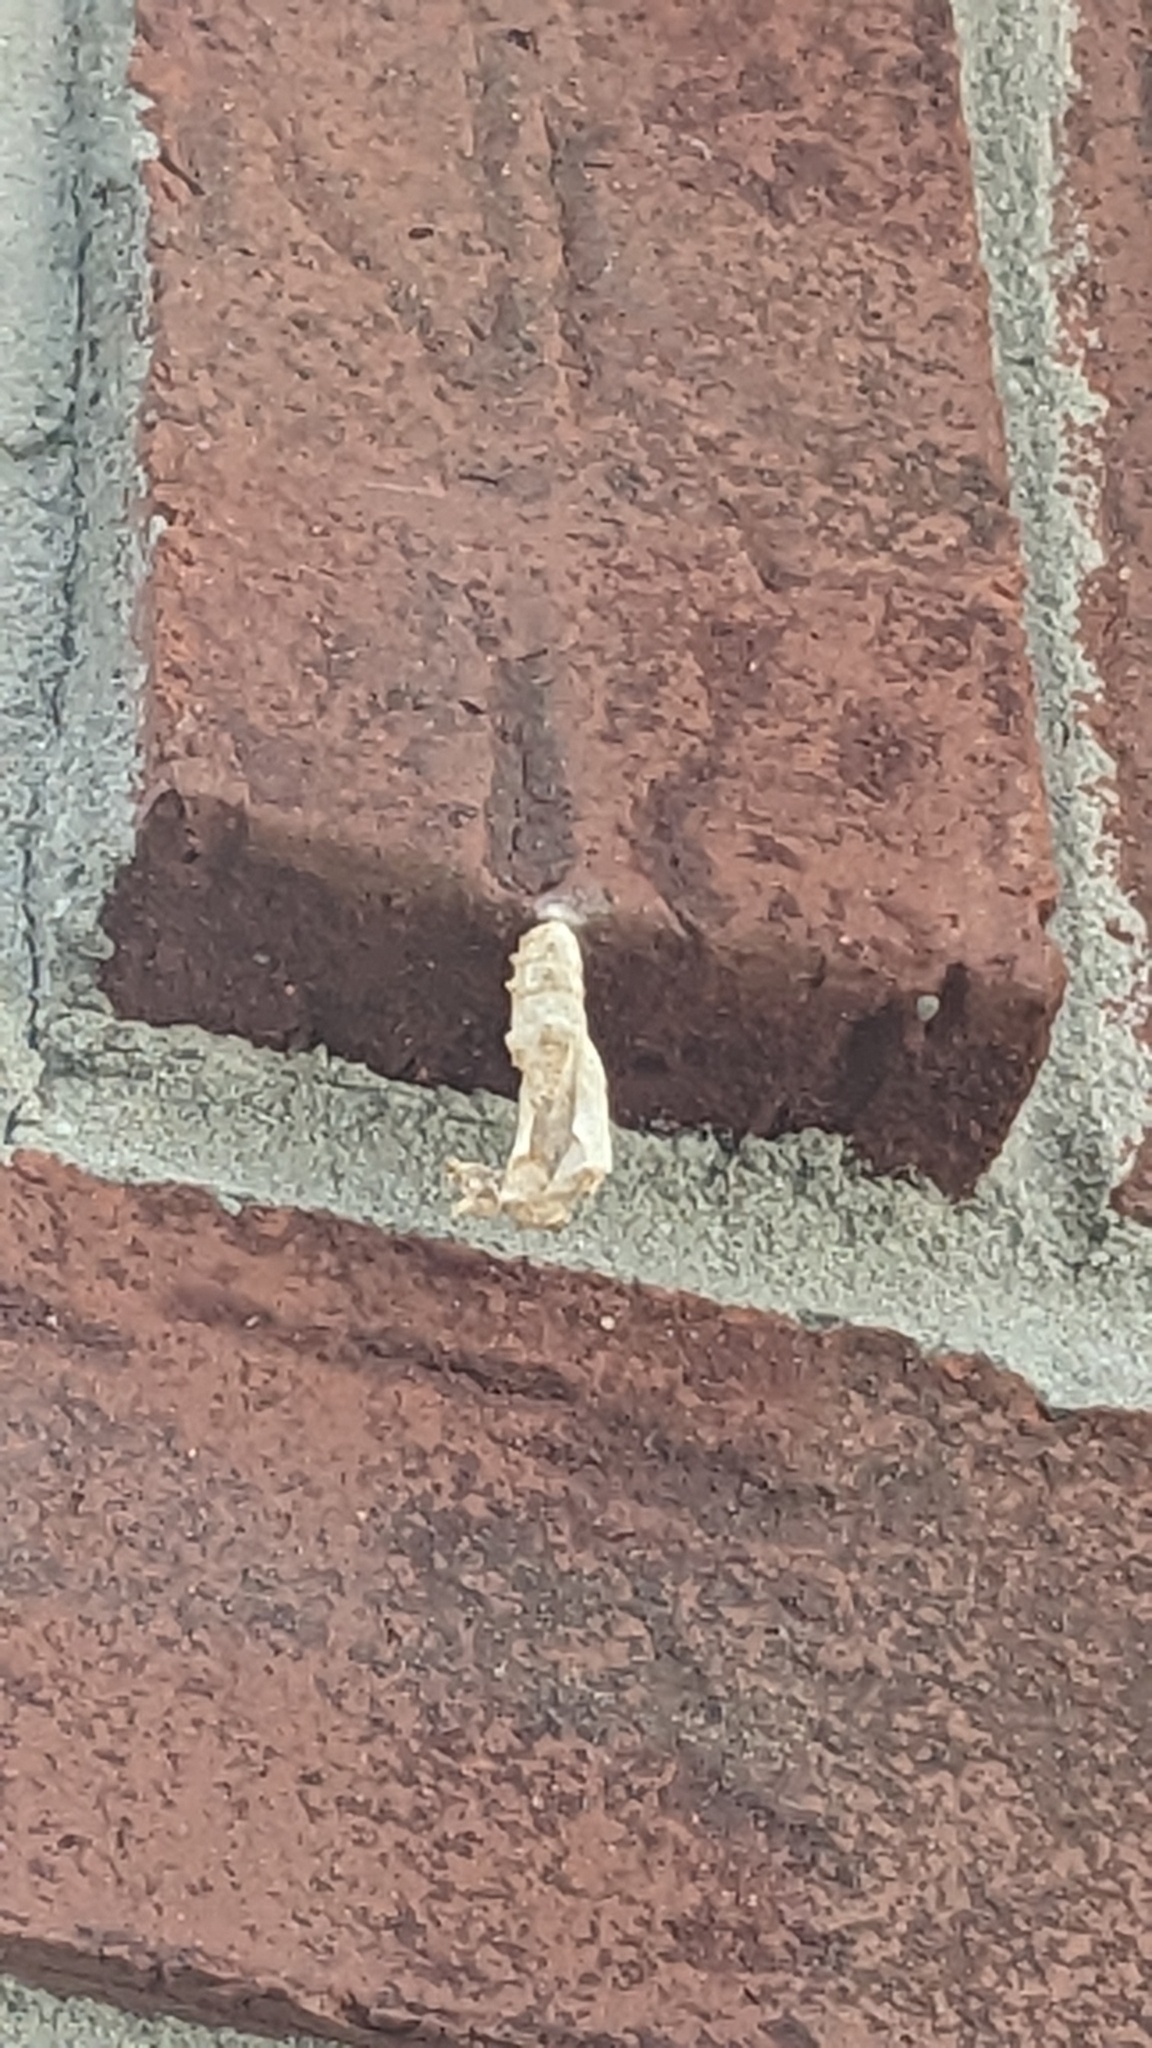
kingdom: Animalia
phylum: Arthropoda
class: Insecta
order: Lepidoptera
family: Nymphalidae
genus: Dione
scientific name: Dione vanillae
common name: Gulf fritillary
